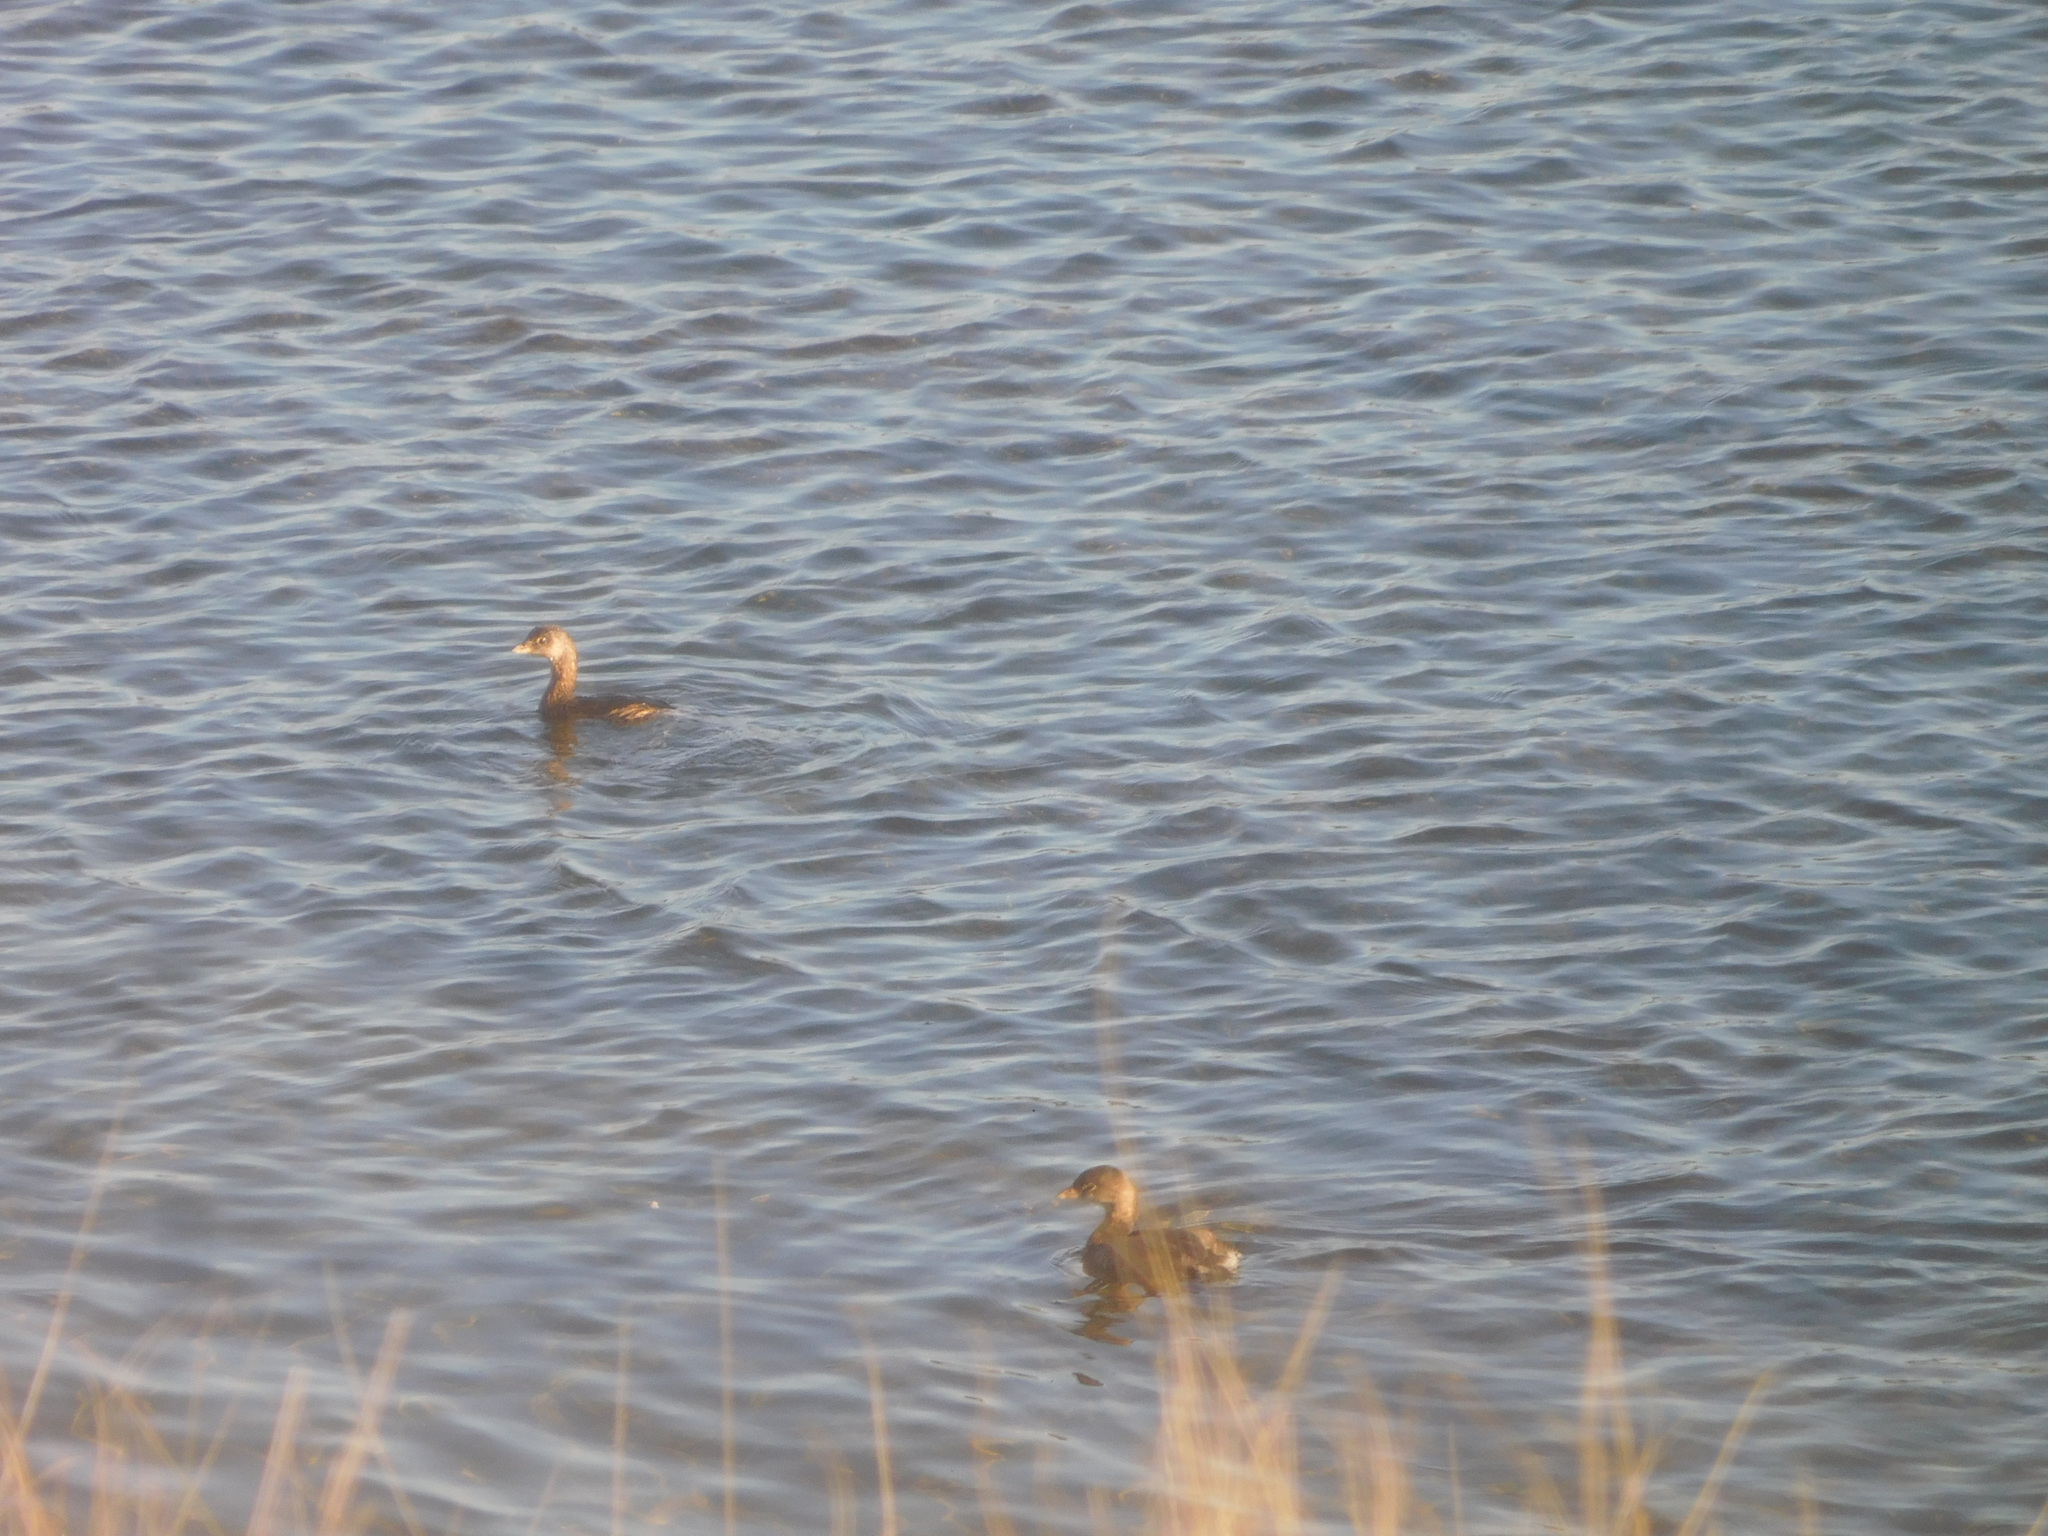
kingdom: Animalia
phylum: Chordata
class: Aves
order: Podicipediformes
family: Podicipedidae
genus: Podilymbus
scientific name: Podilymbus podiceps
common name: Pied-billed grebe
